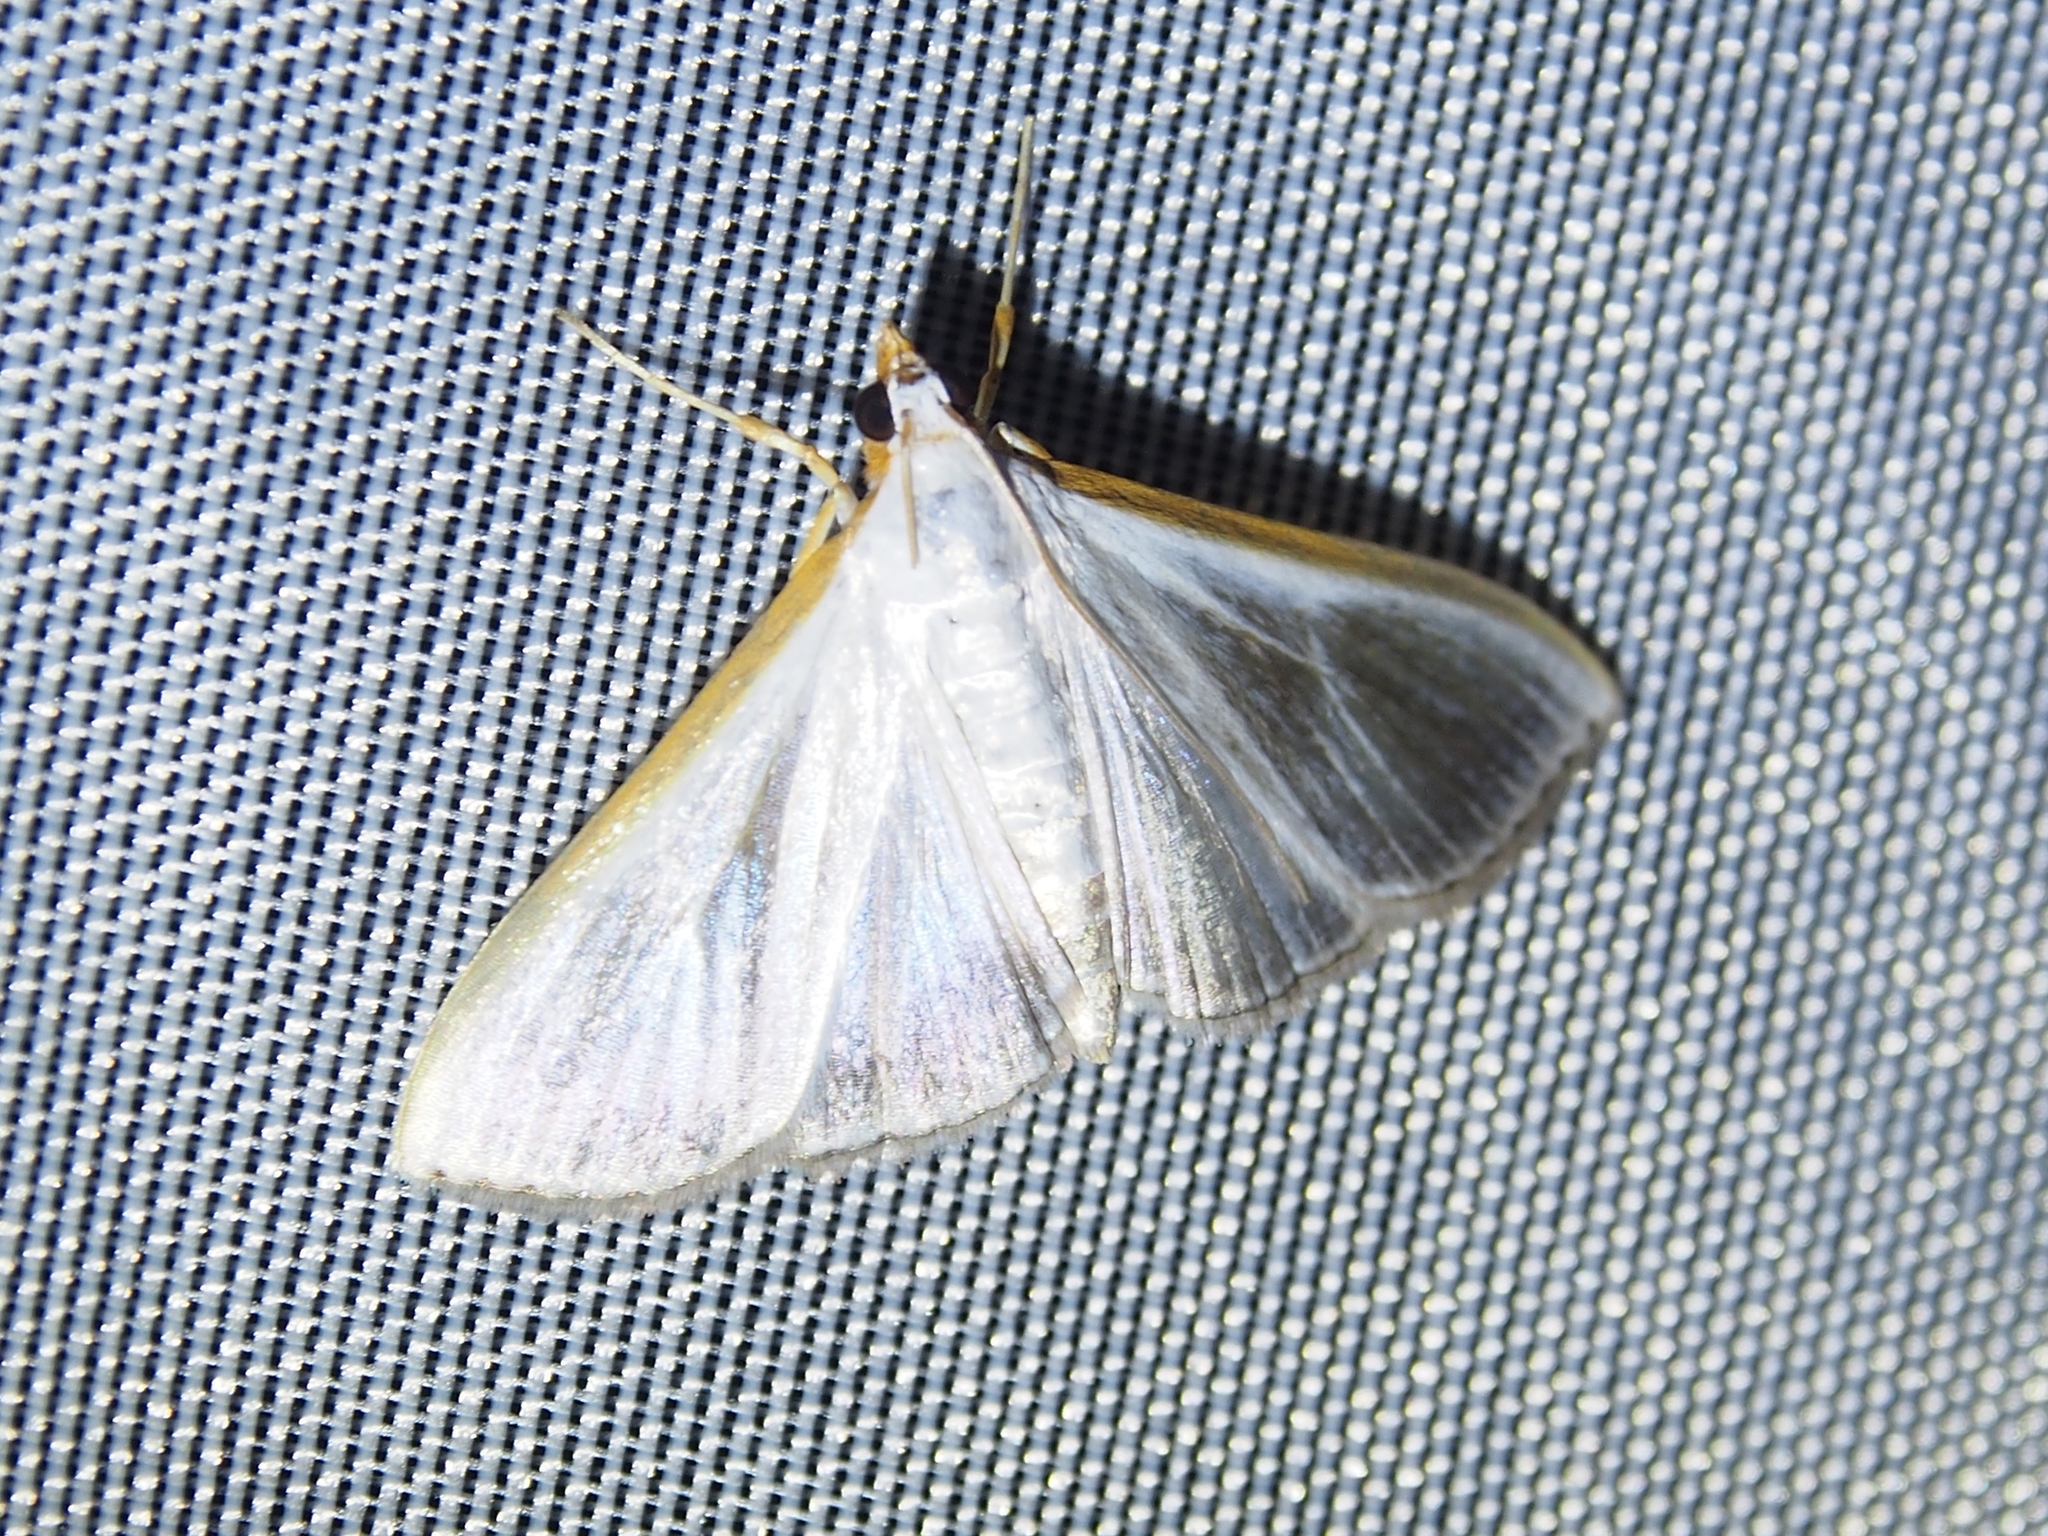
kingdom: Animalia
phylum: Arthropoda
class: Insecta
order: Lepidoptera
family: Crambidae
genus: Diaphania
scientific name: Diaphania glauculalis
